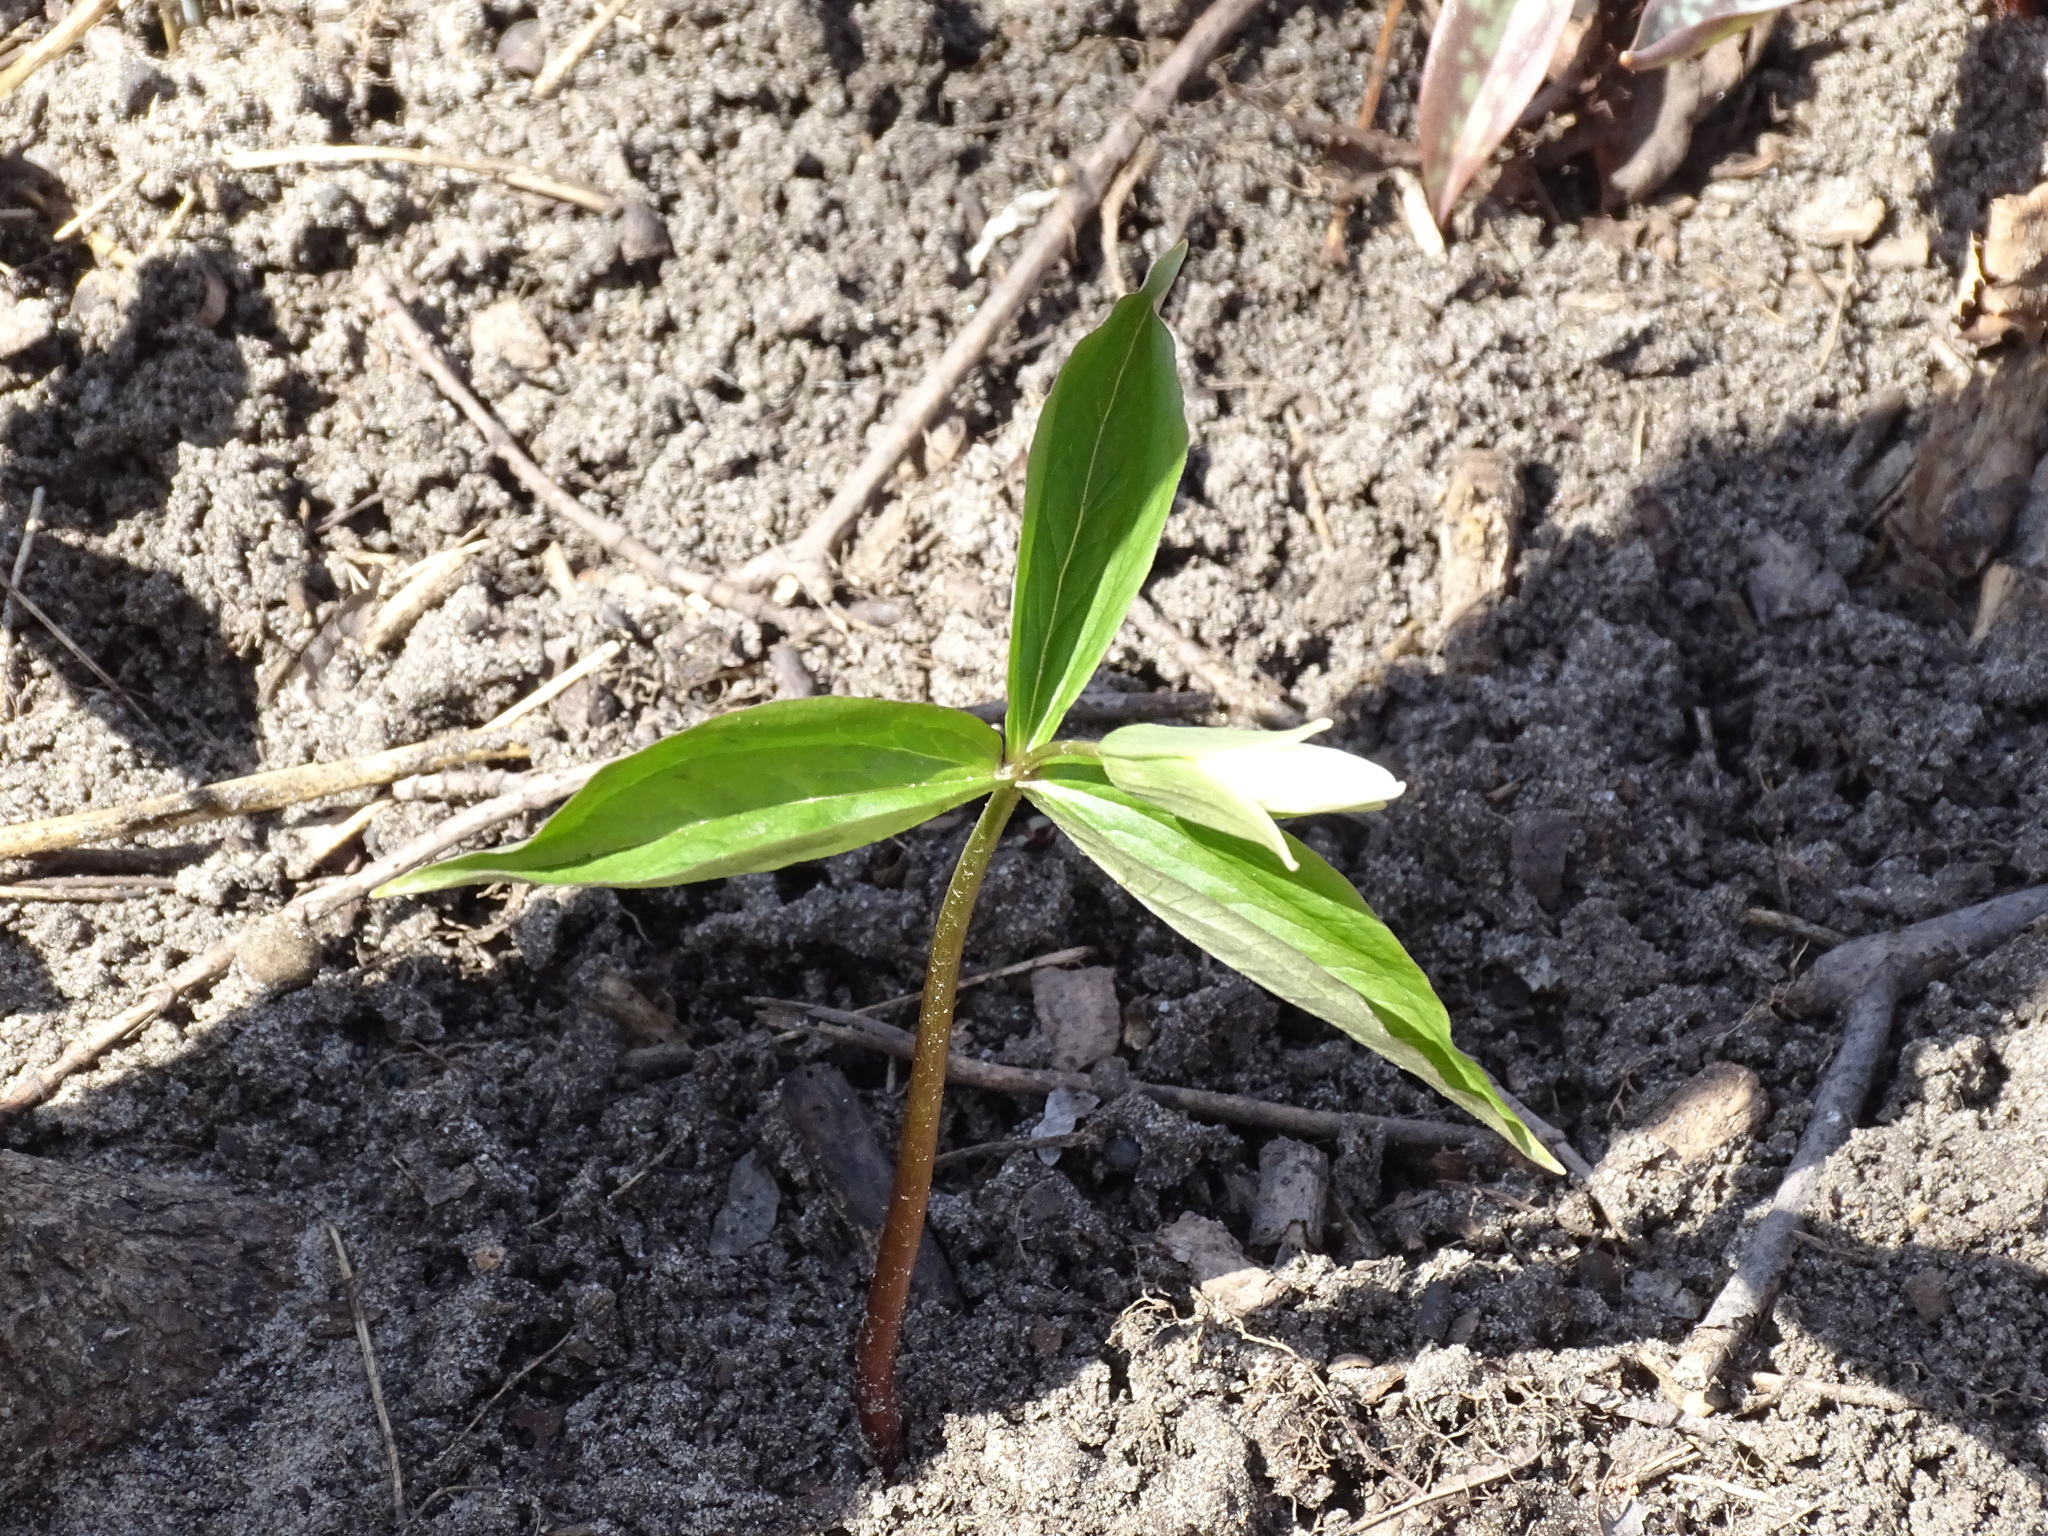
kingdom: Plantae
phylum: Tracheophyta
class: Liliopsida
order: Liliales
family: Melanthiaceae
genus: Trillium
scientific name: Trillium grandiflorum
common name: Great white trillium
